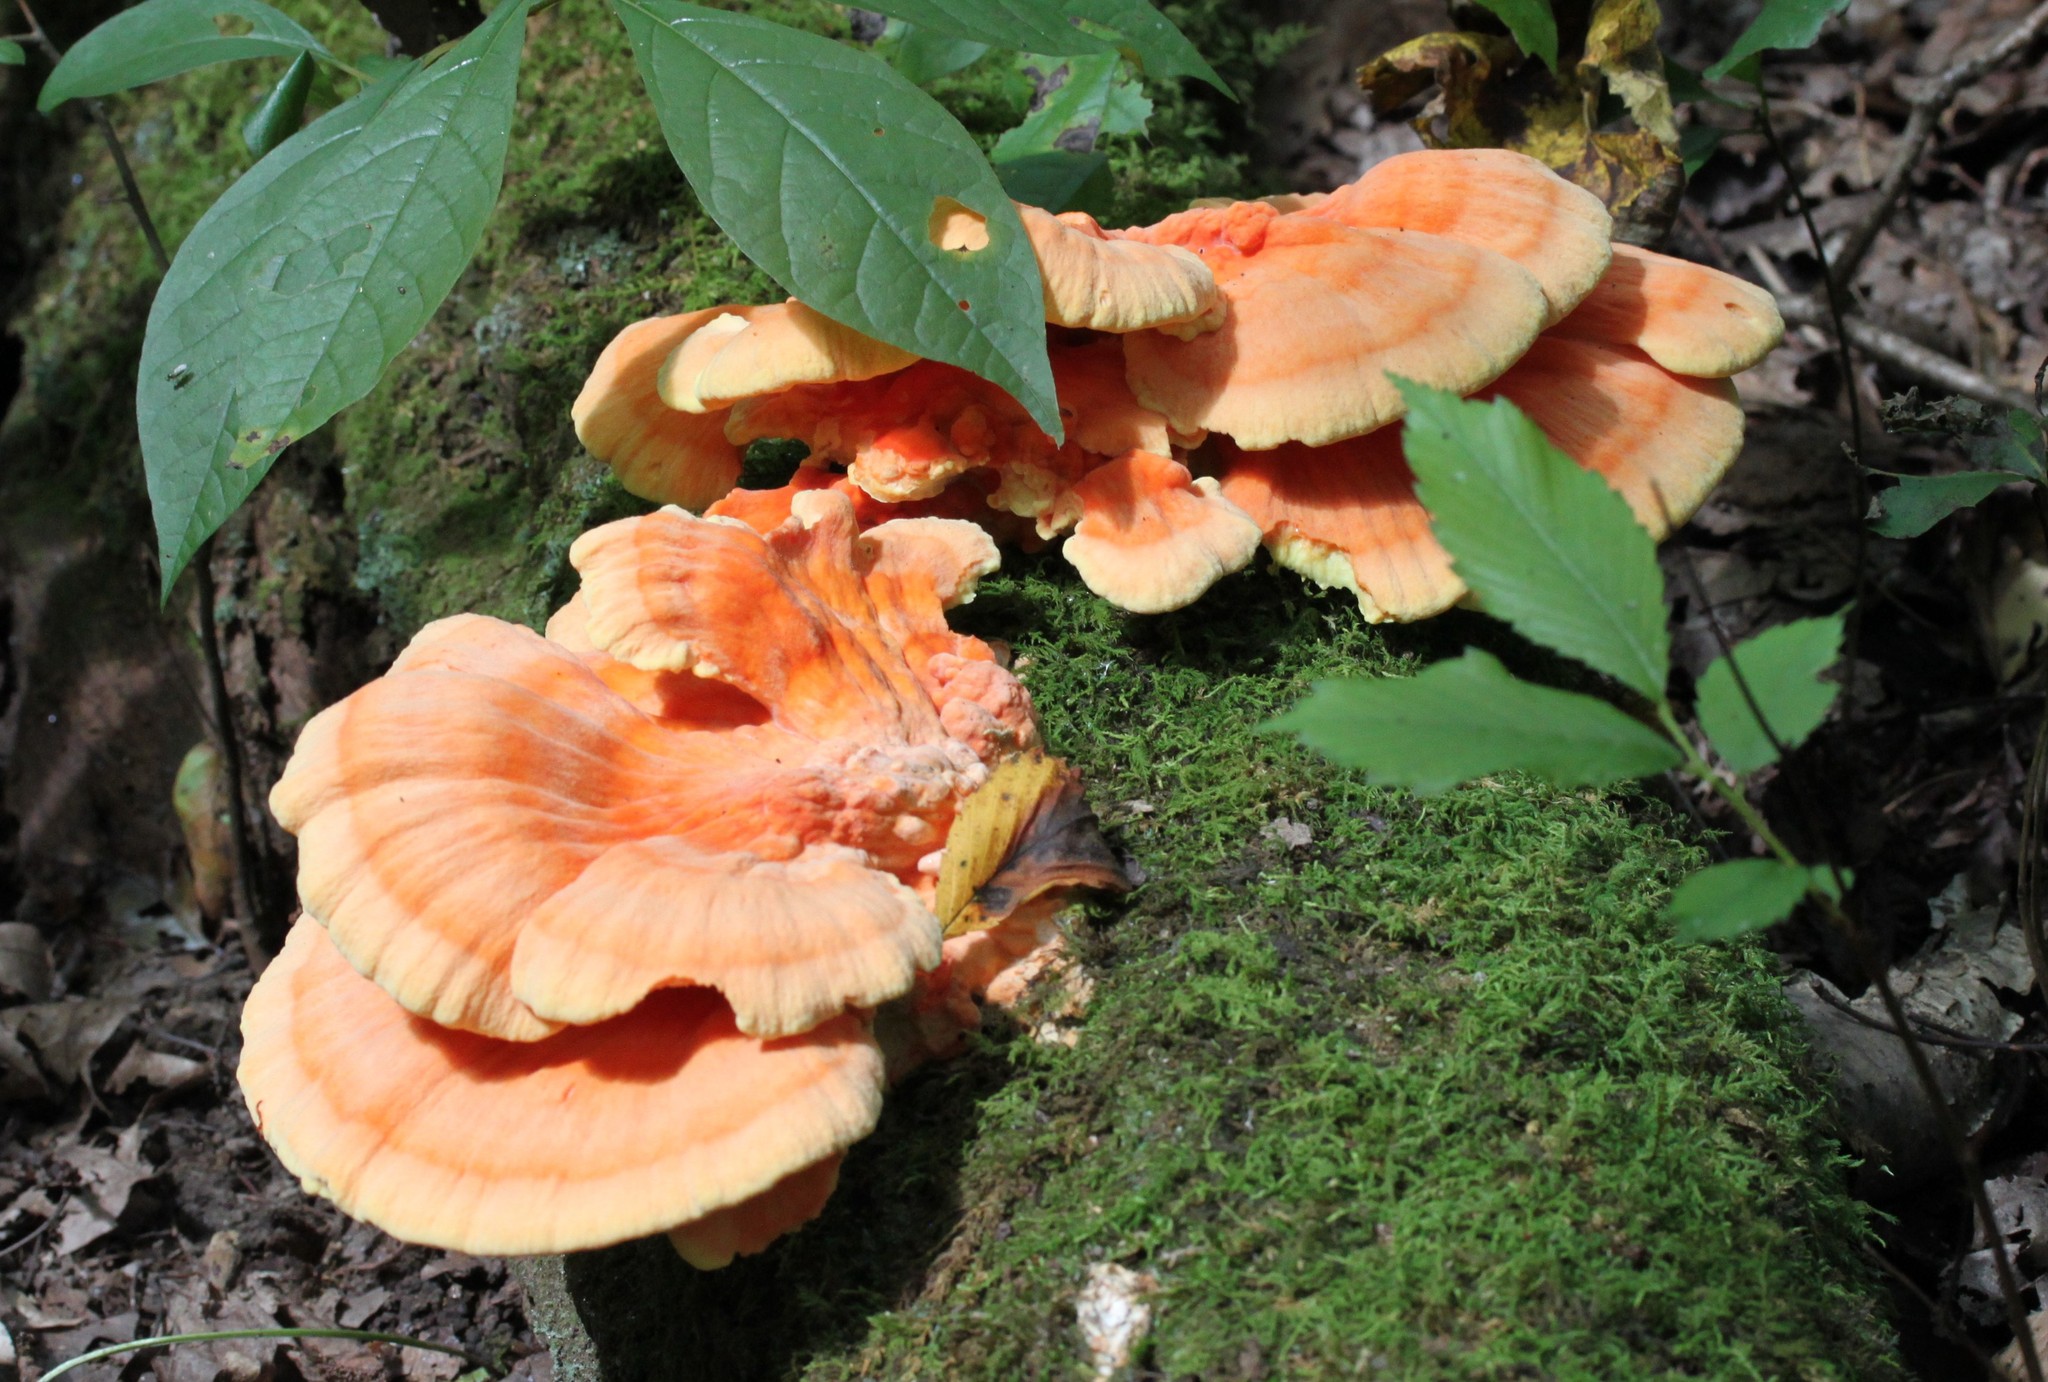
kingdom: Fungi
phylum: Basidiomycota
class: Agaricomycetes
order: Polyporales
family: Laetiporaceae
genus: Laetiporus
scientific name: Laetiporus sulphureus
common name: Chicken of the woods
